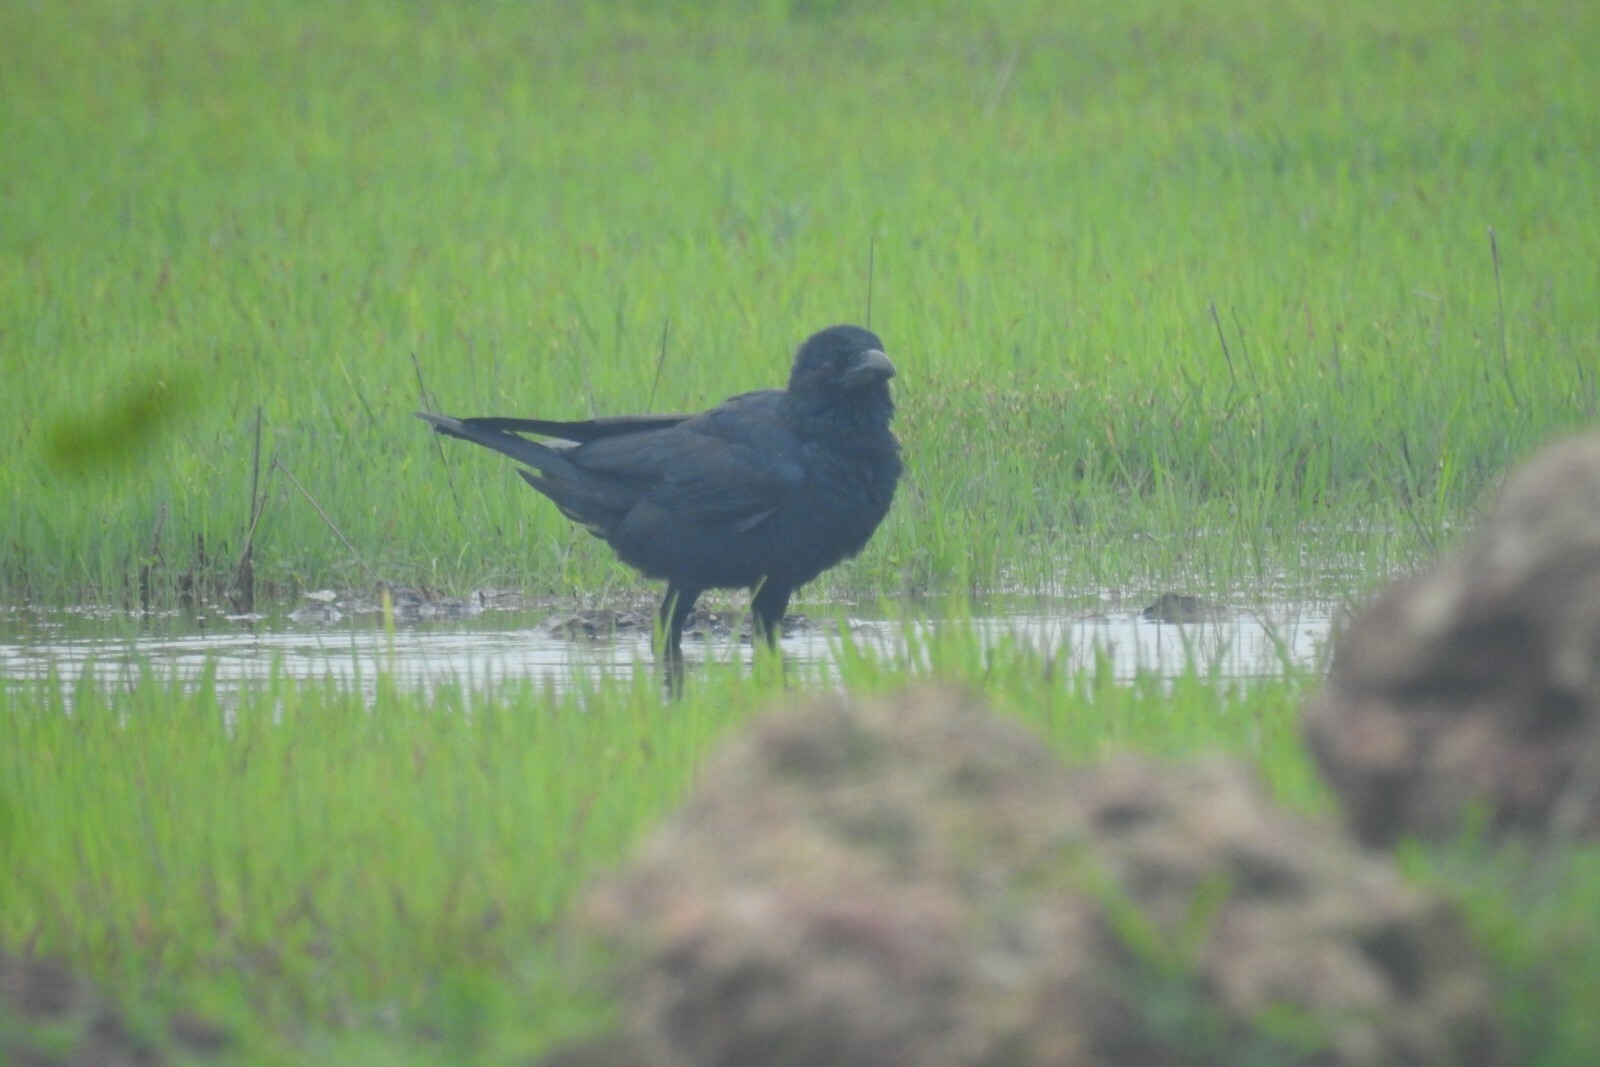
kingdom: Animalia
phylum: Chordata
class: Aves
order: Passeriformes
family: Corvidae
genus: Corvus
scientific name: Corvus macrorhynchos
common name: Large-billed crow
